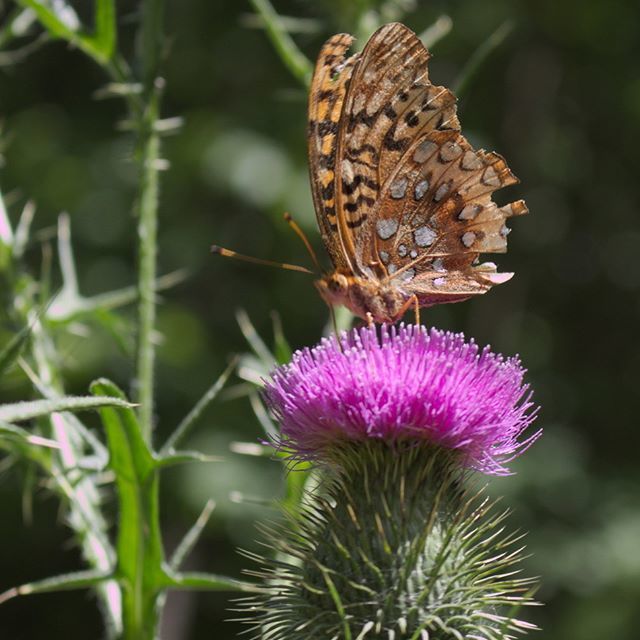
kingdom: Animalia
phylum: Arthropoda
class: Insecta
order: Lepidoptera
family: Nymphalidae
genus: Speyeria
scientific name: Speyeria cybele
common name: Great spangled fritillary
